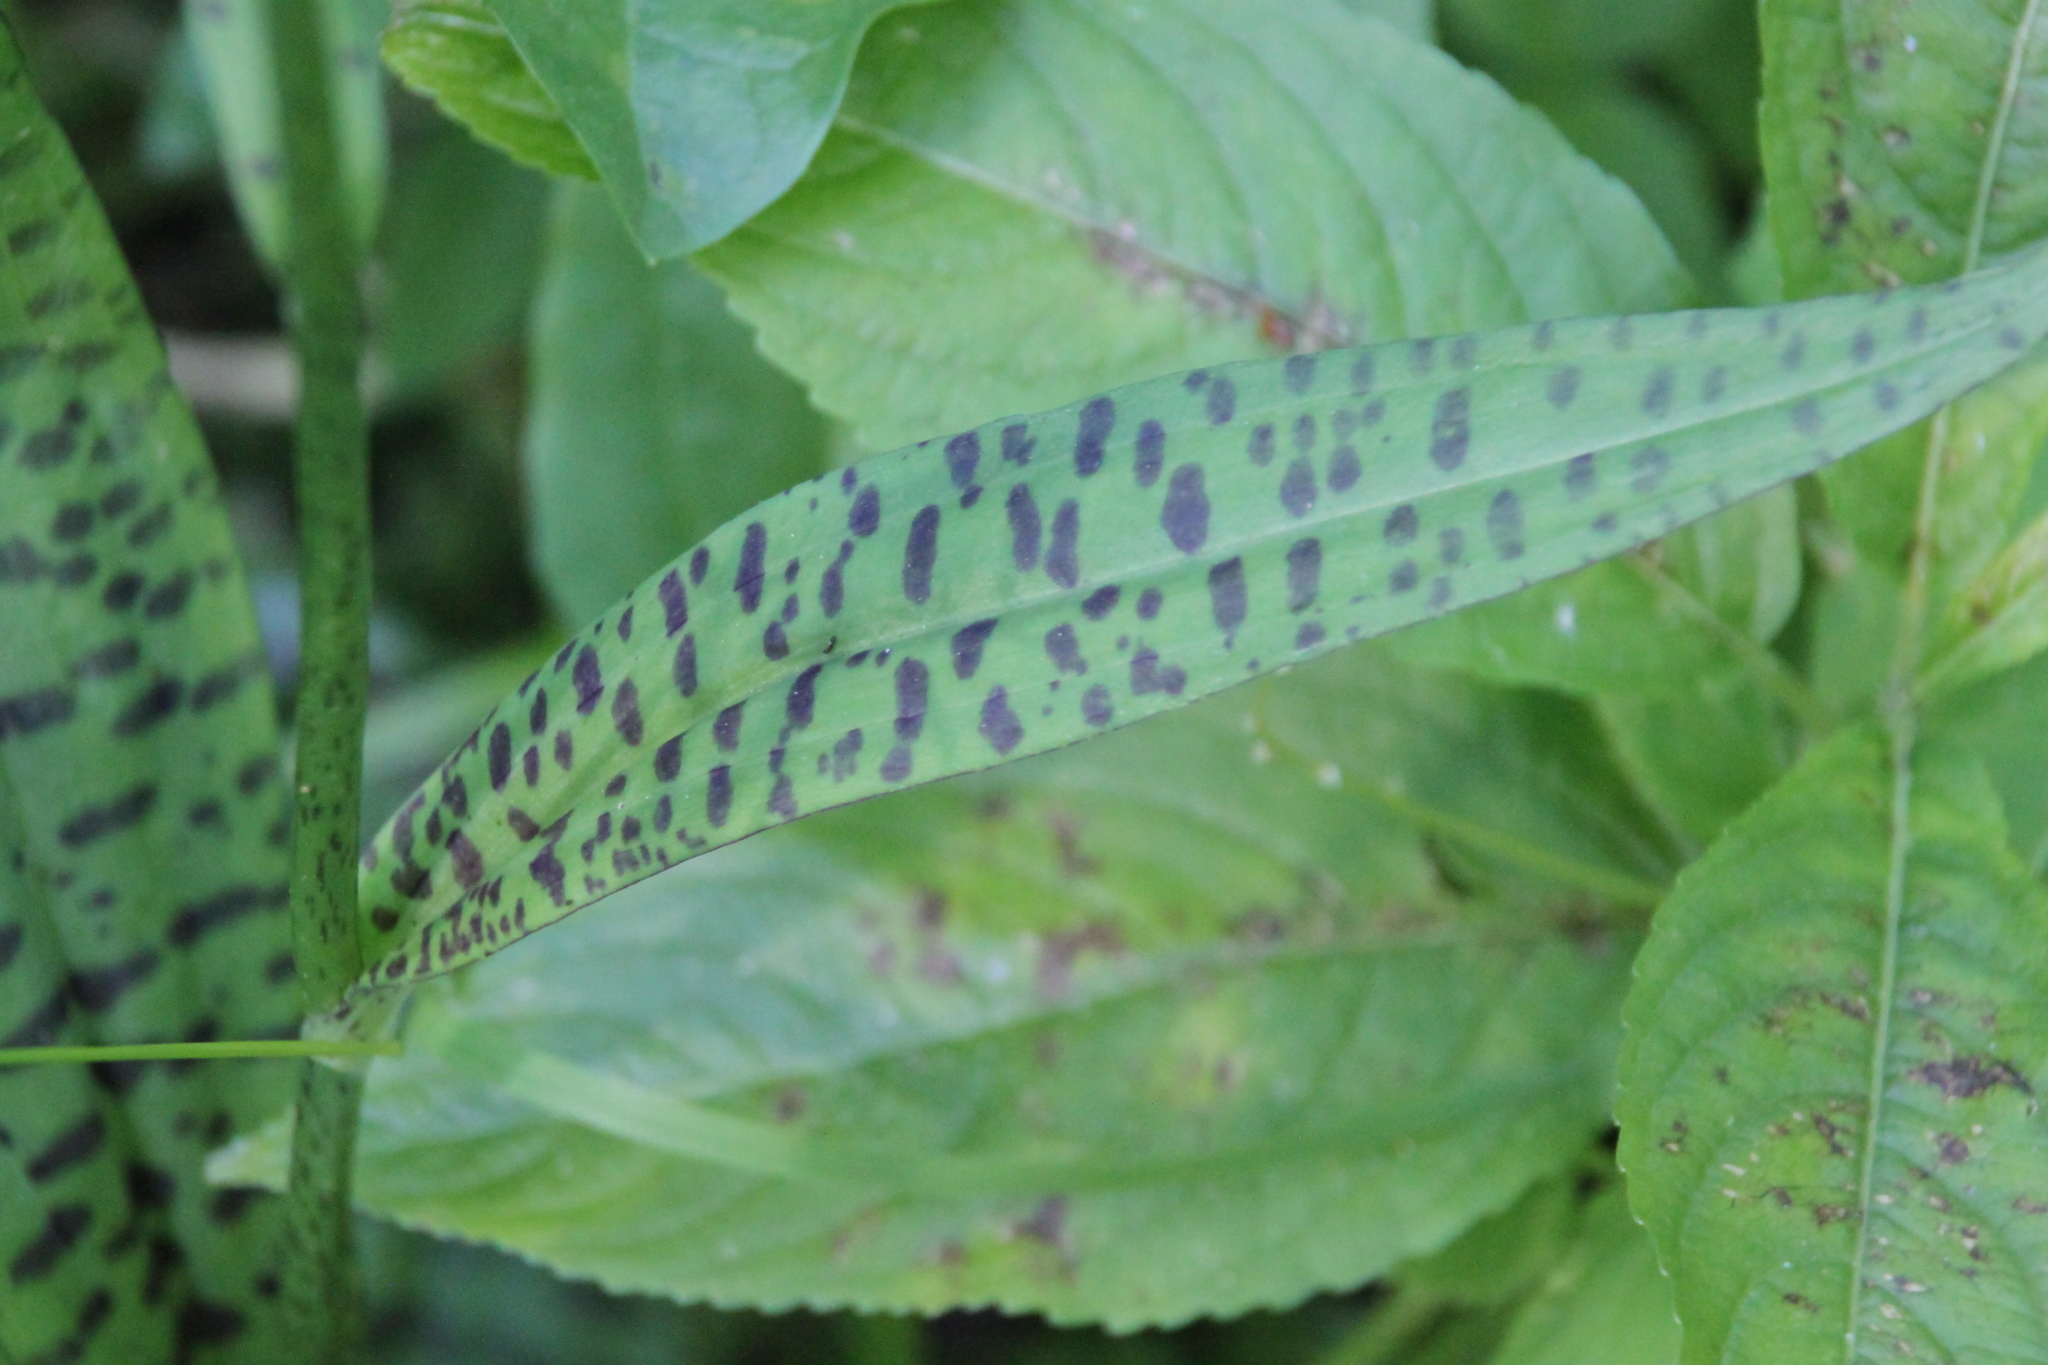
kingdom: Plantae
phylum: Tracheophyta
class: Liliopsida
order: Asparagales
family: Orchidaceae
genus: Dactylorhiza
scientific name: Dactylorhiza maculata
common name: Heath spotted-orchid
